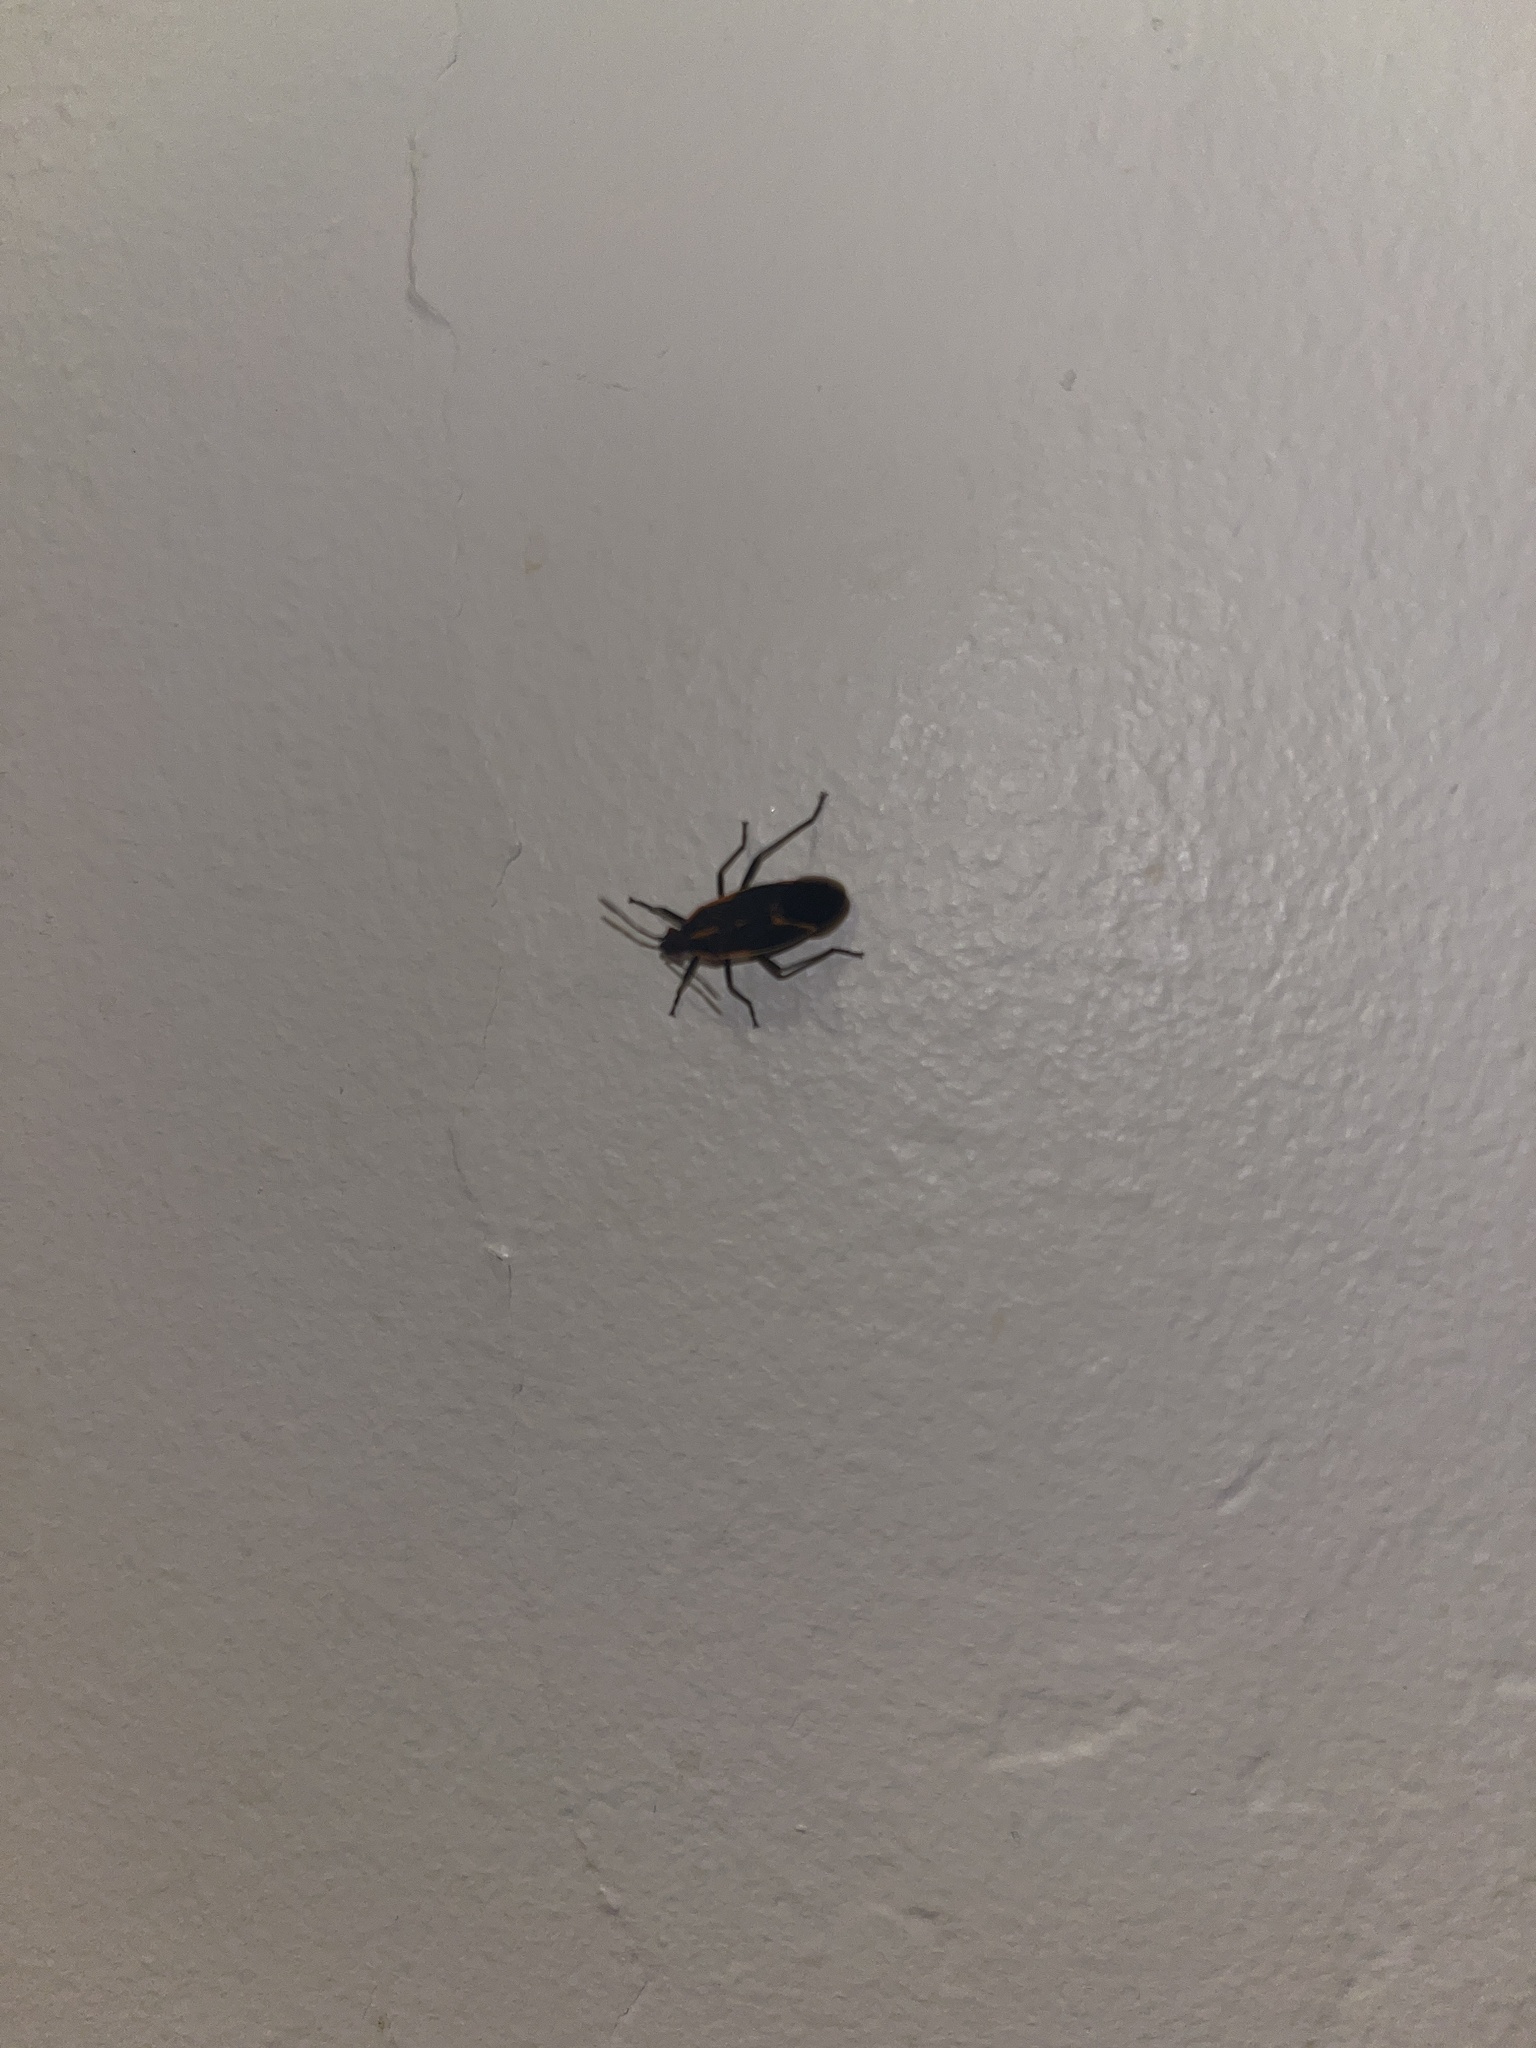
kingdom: Animalia
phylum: Arthropoda
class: Insecta
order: Hemiptera
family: Rhopalidae
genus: Boisea
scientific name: Boisea trivittata
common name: Boxelder bug
